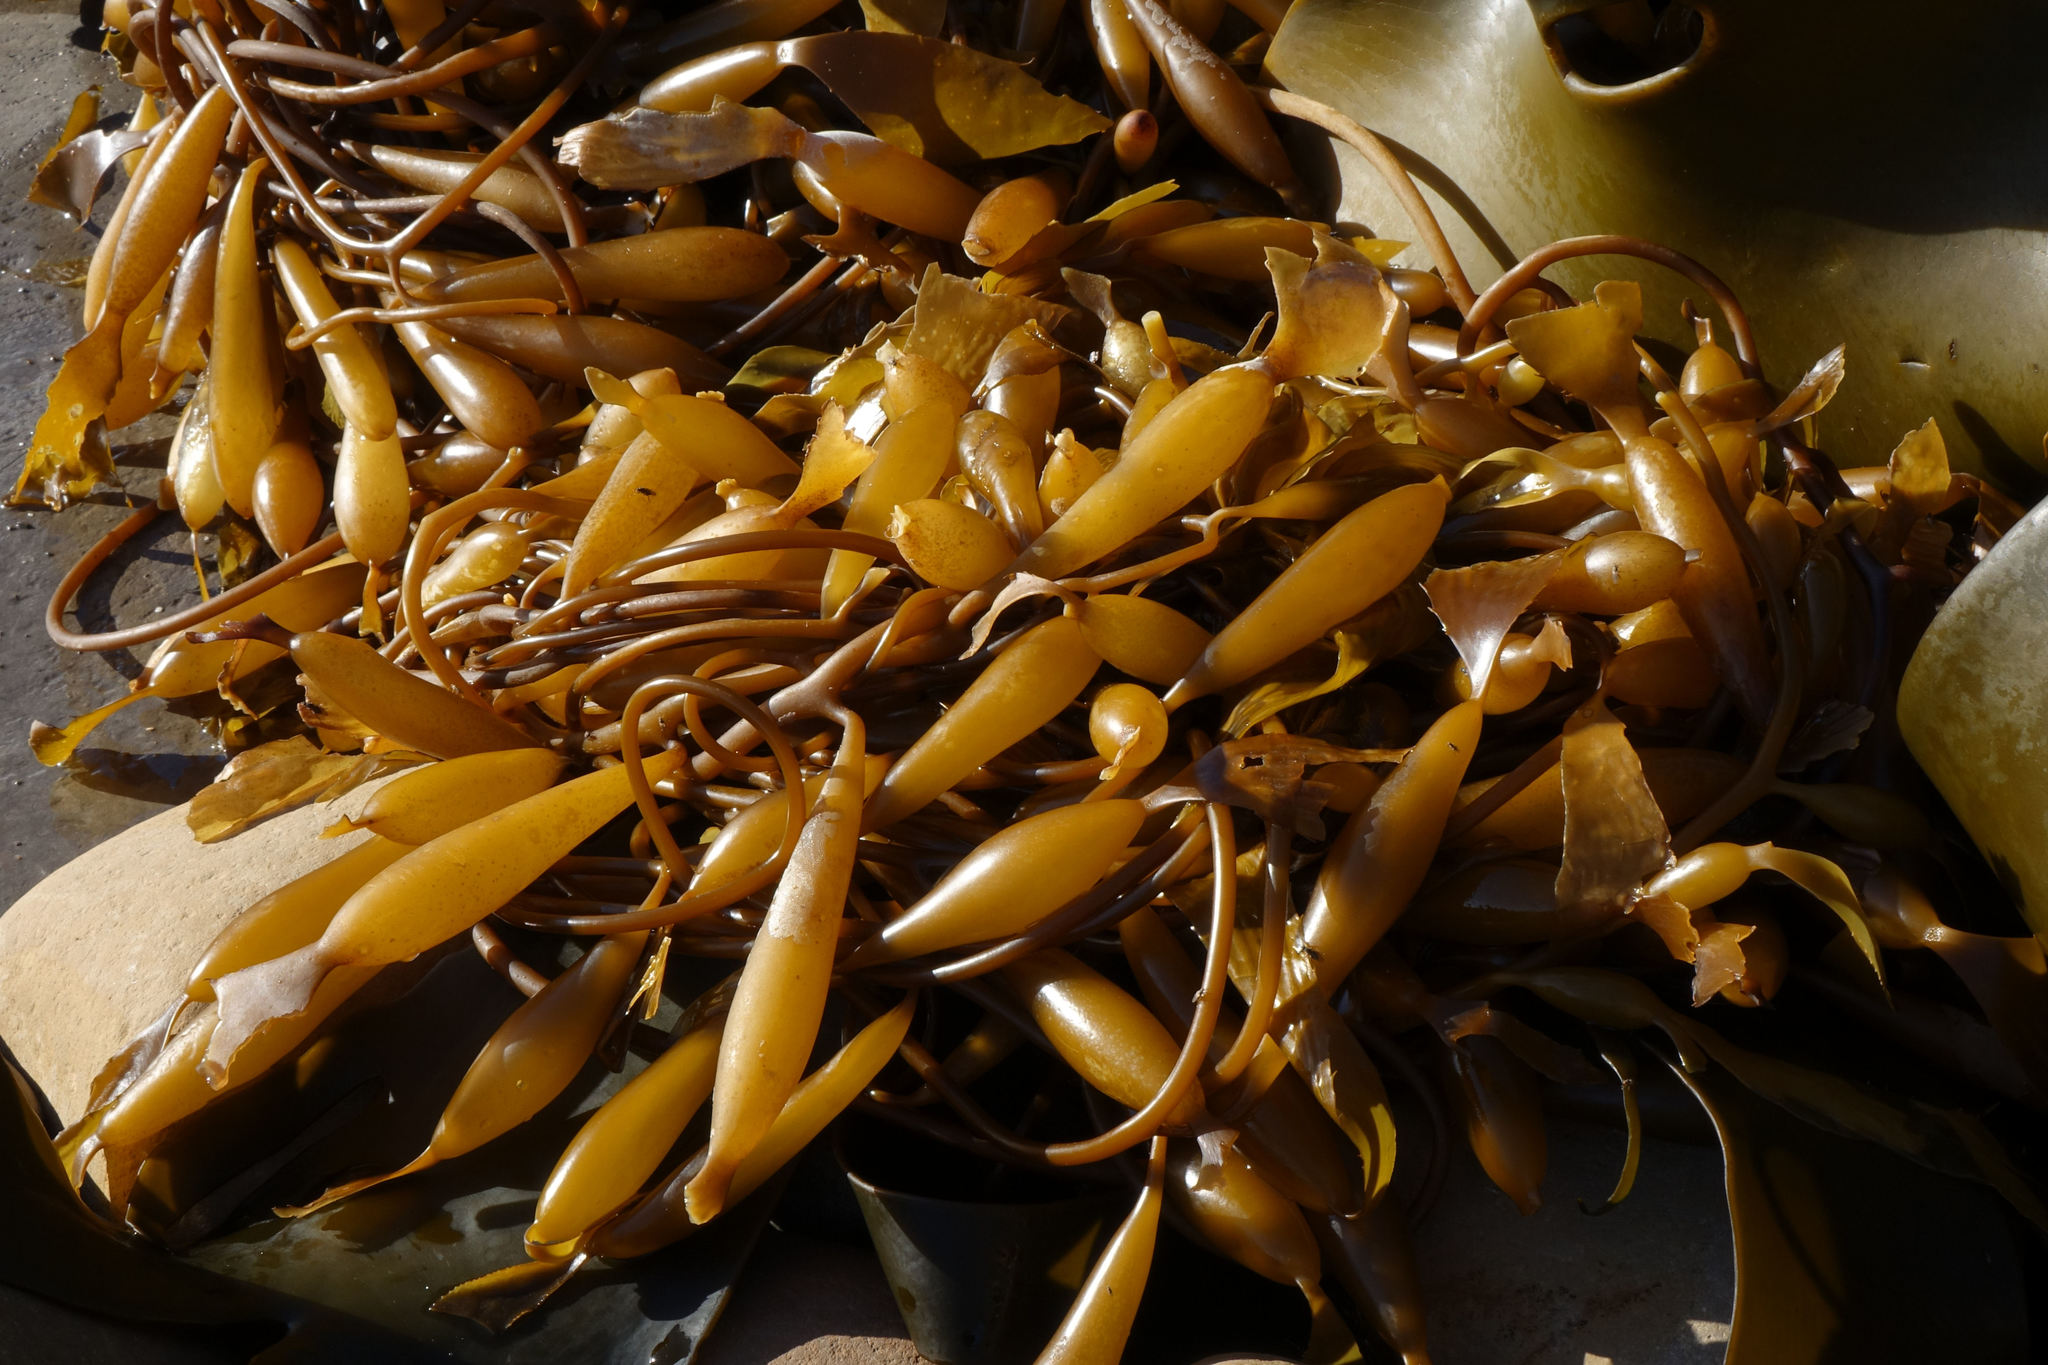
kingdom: Chromista
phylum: Ochrophyta
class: Phaeophyceae
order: Laminariales
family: Laminariaceae
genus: Macrocystis
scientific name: Macrocystis pyrifera
